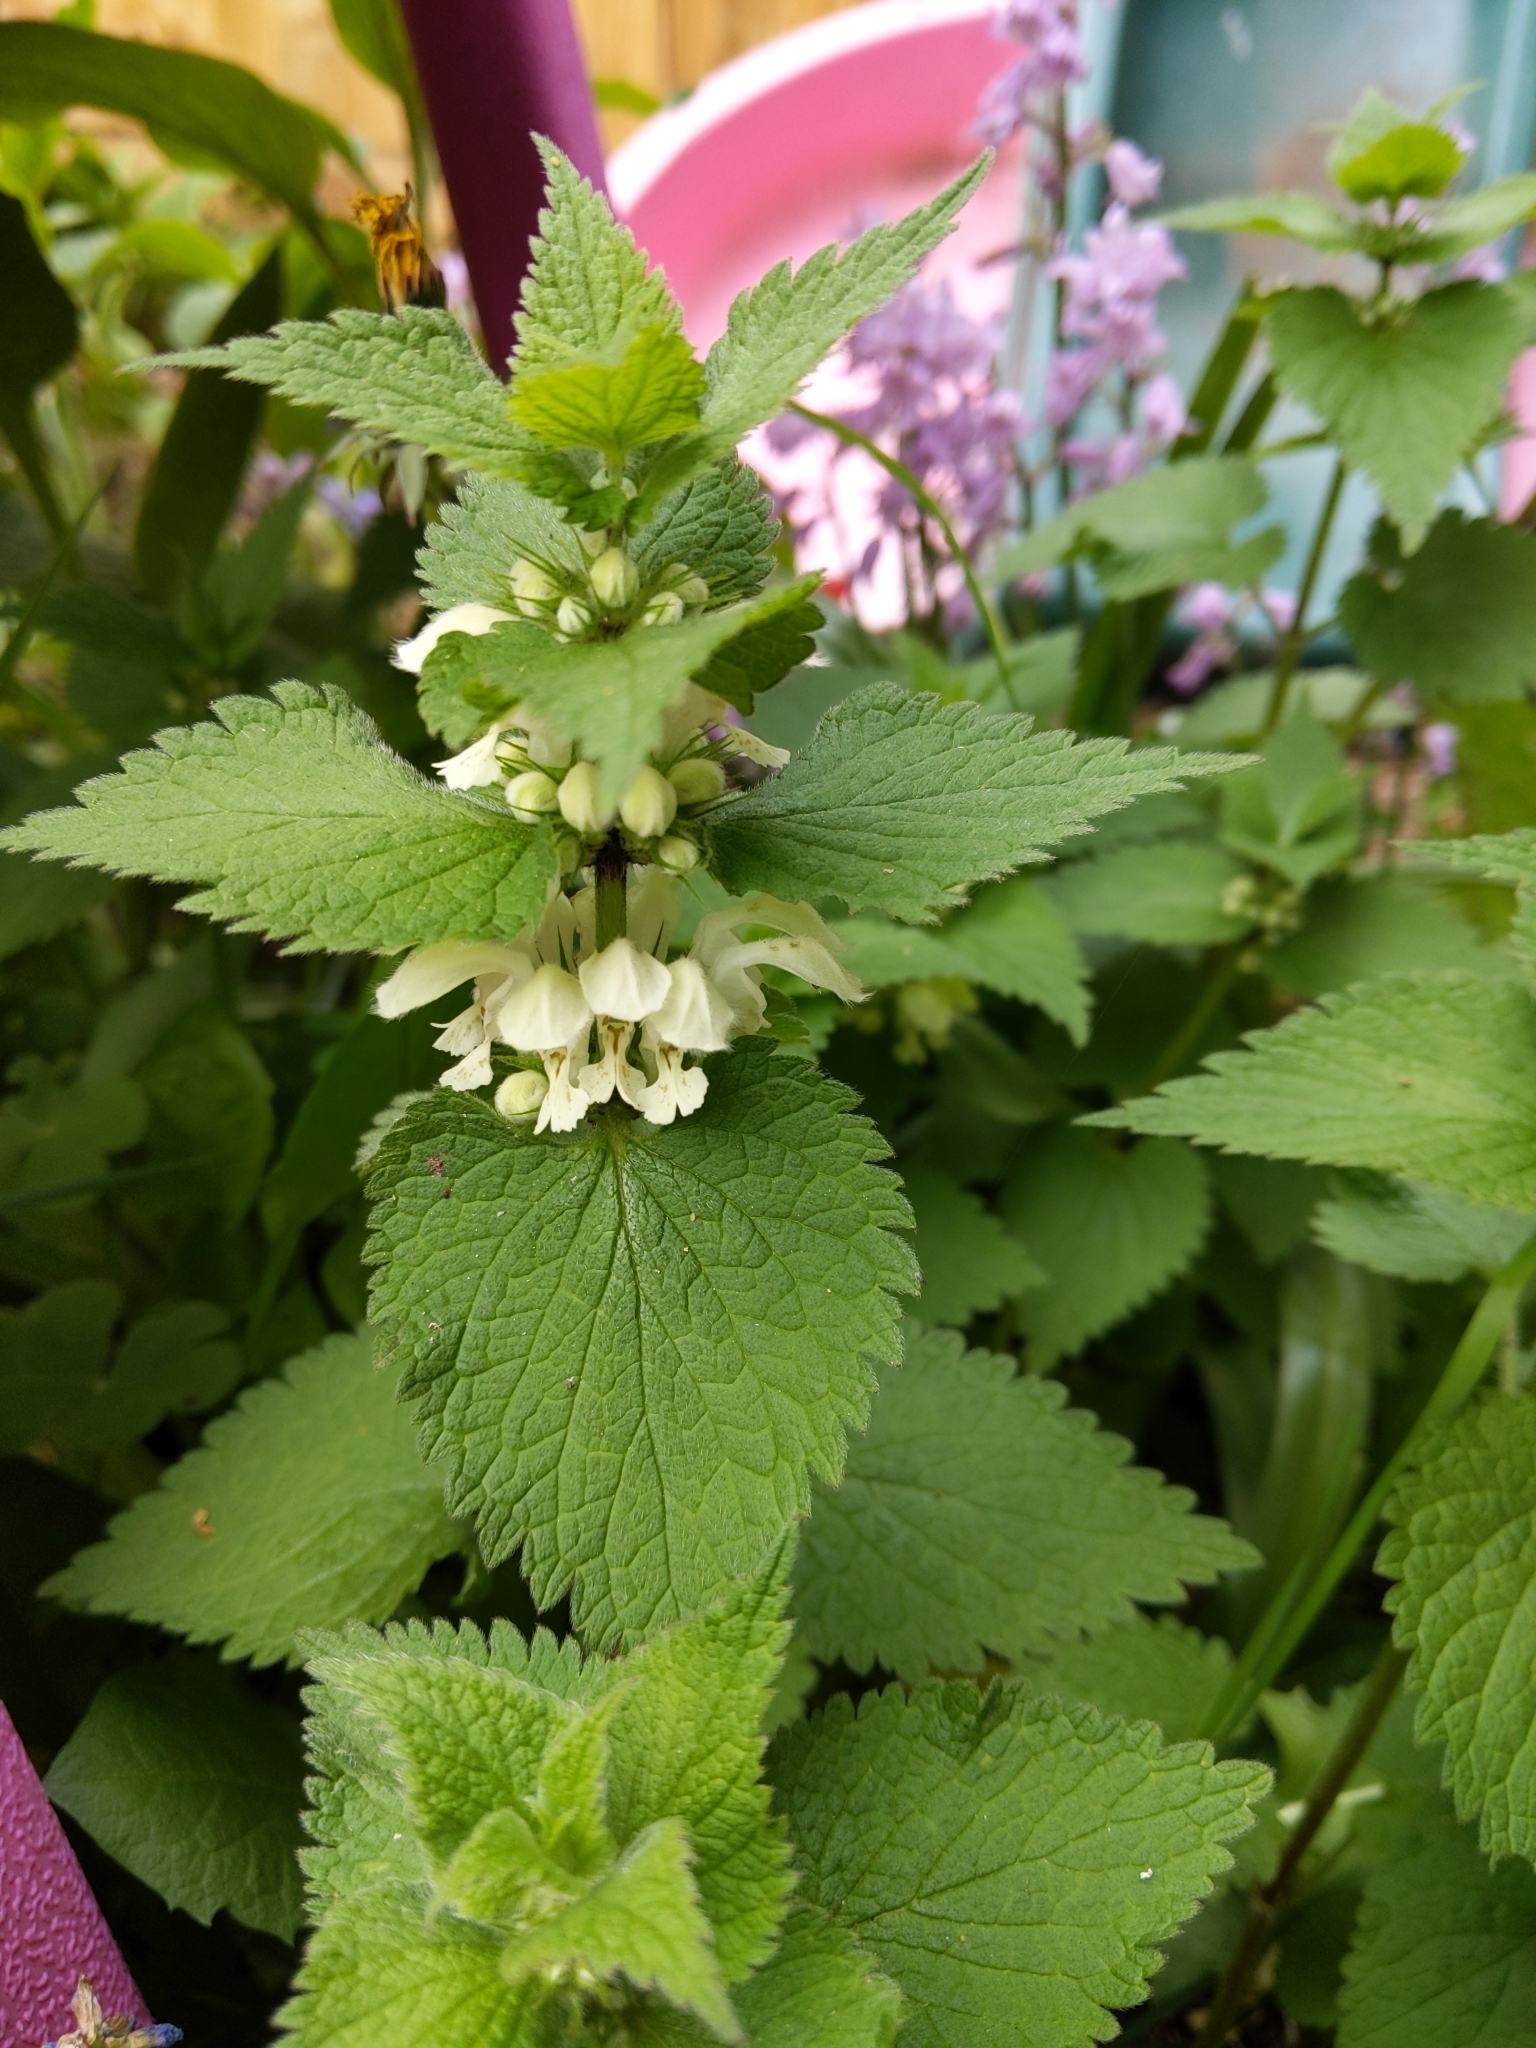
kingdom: Plantae
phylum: Tracheophyta
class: Magnoliopsida
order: Lamiales
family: Lamiaceae
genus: Lamium
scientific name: Lamium album
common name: White dead-nettle
